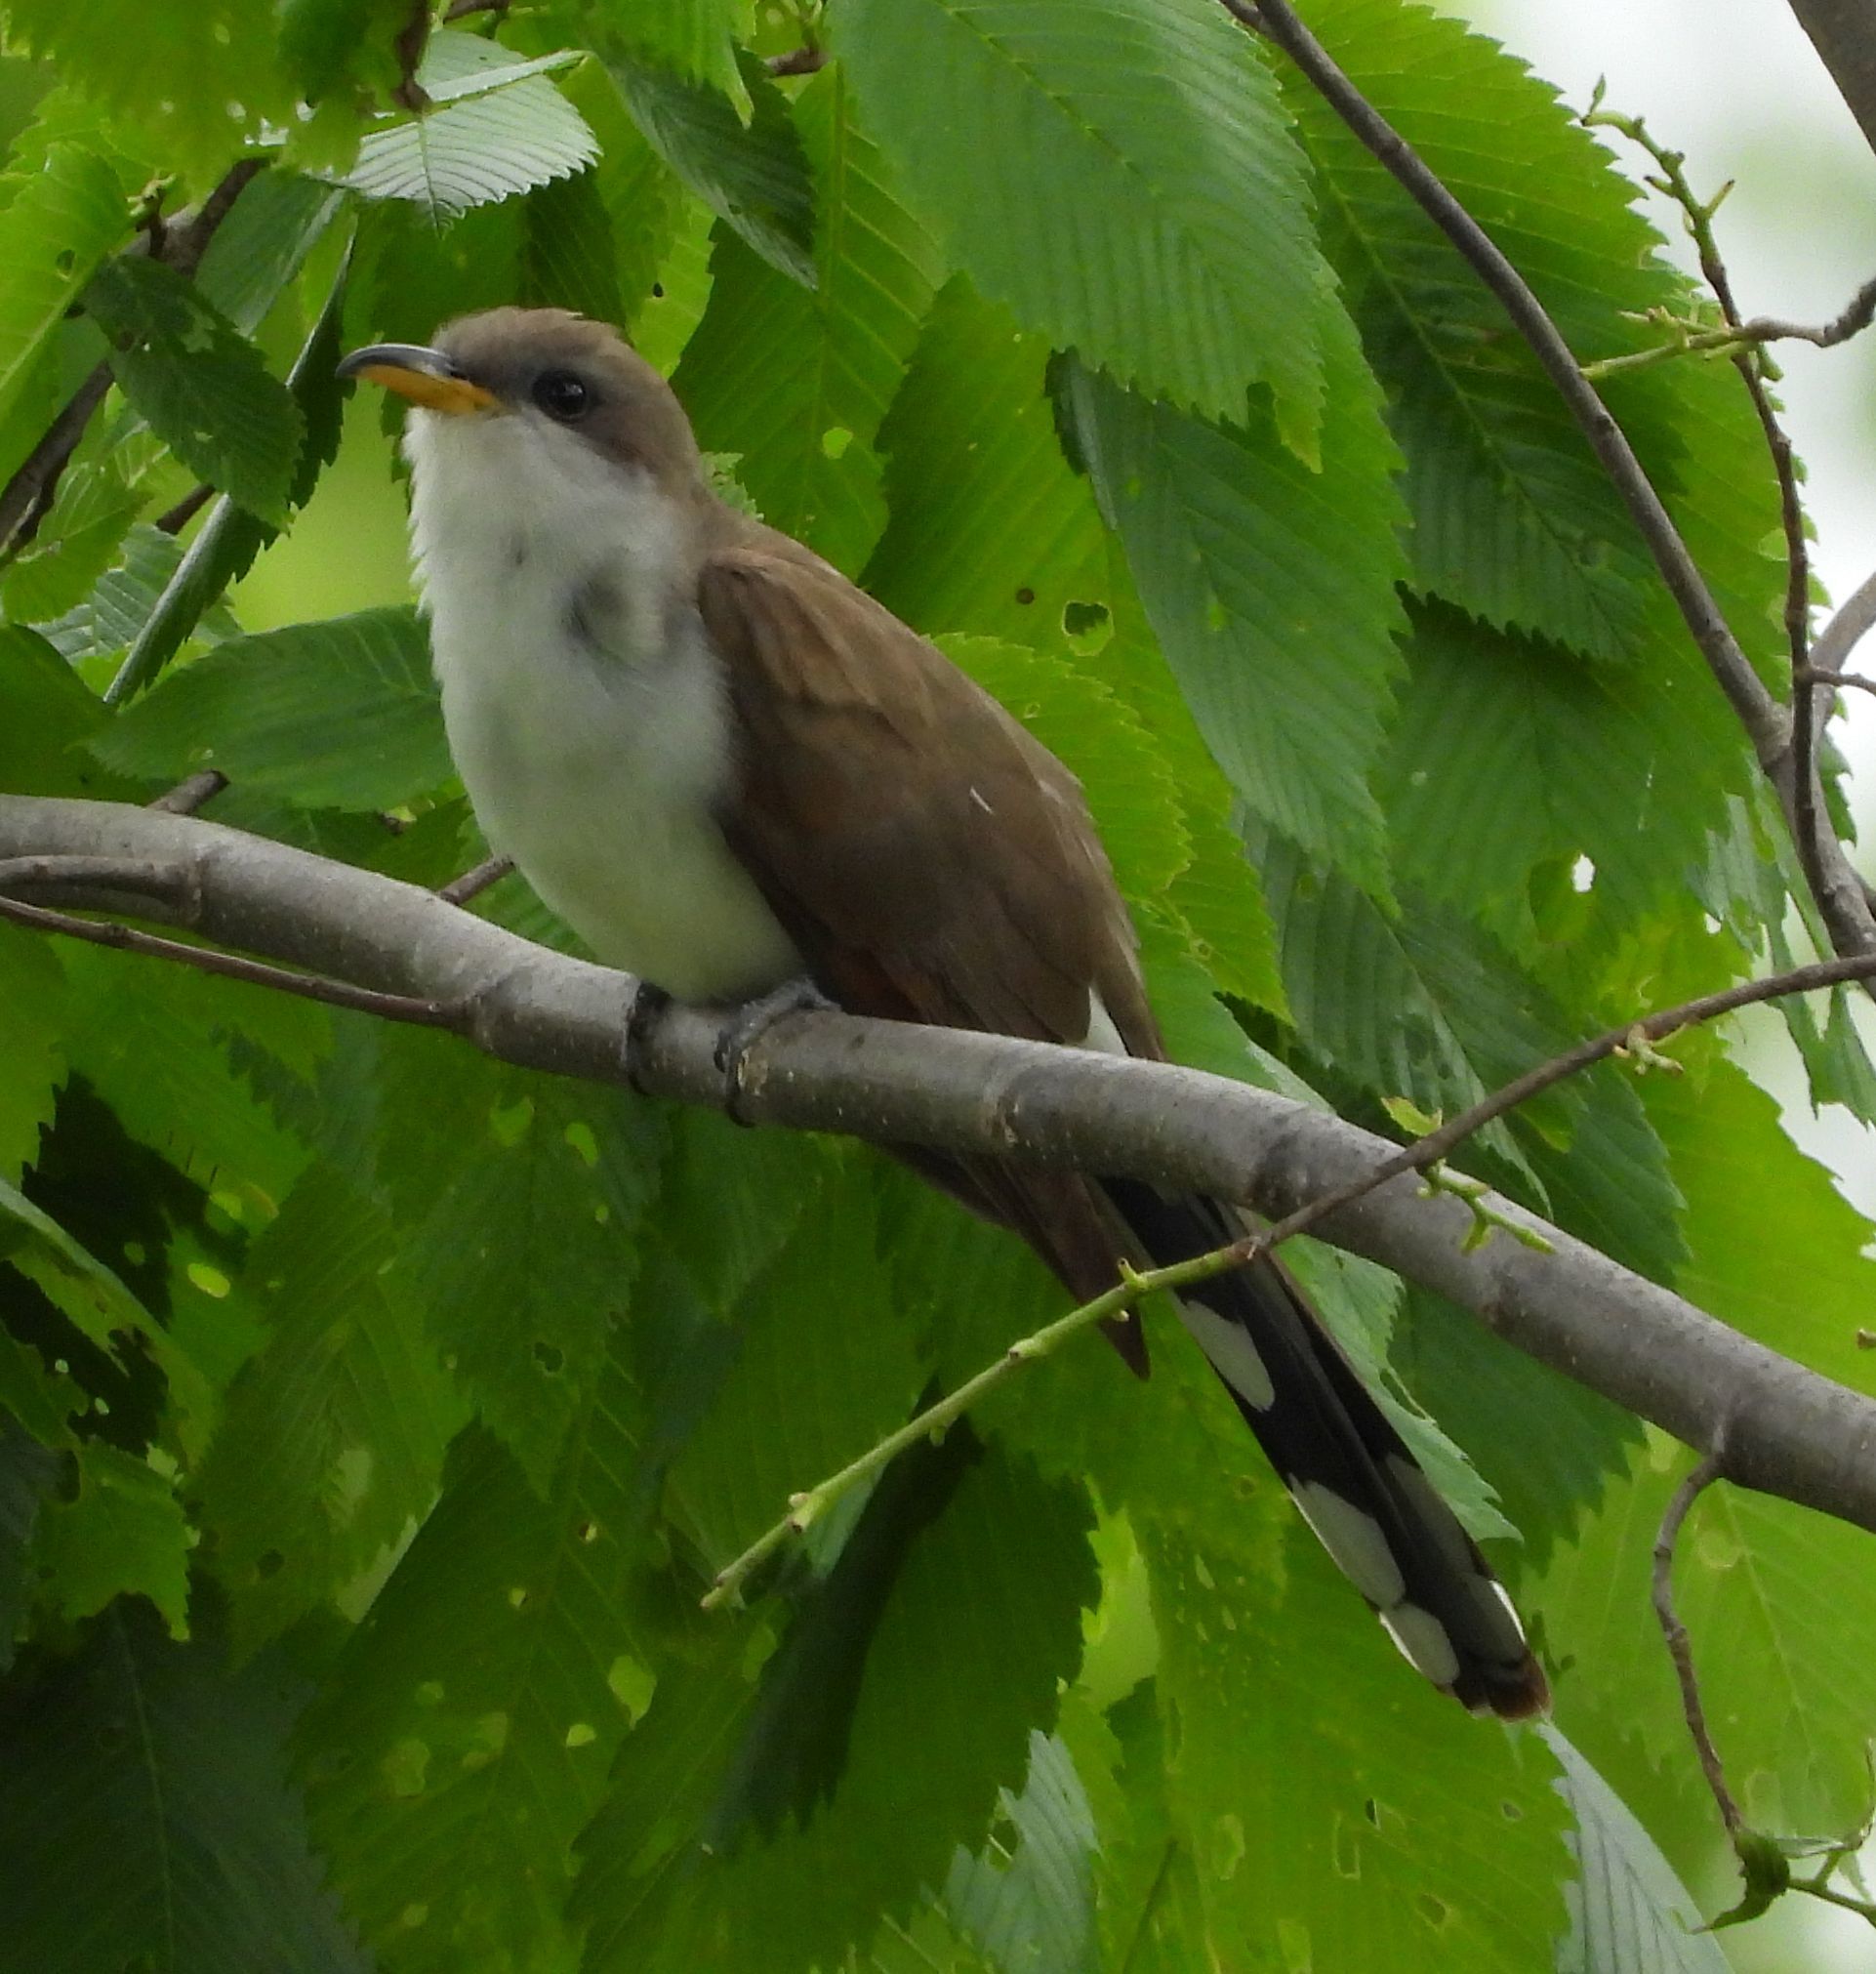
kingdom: Animalia
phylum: Chordata
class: Aves
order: Cuculiformes
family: Cuculidae
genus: Coccyzus
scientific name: Coccyzus americanus
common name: Yellow-billed cuckoo
